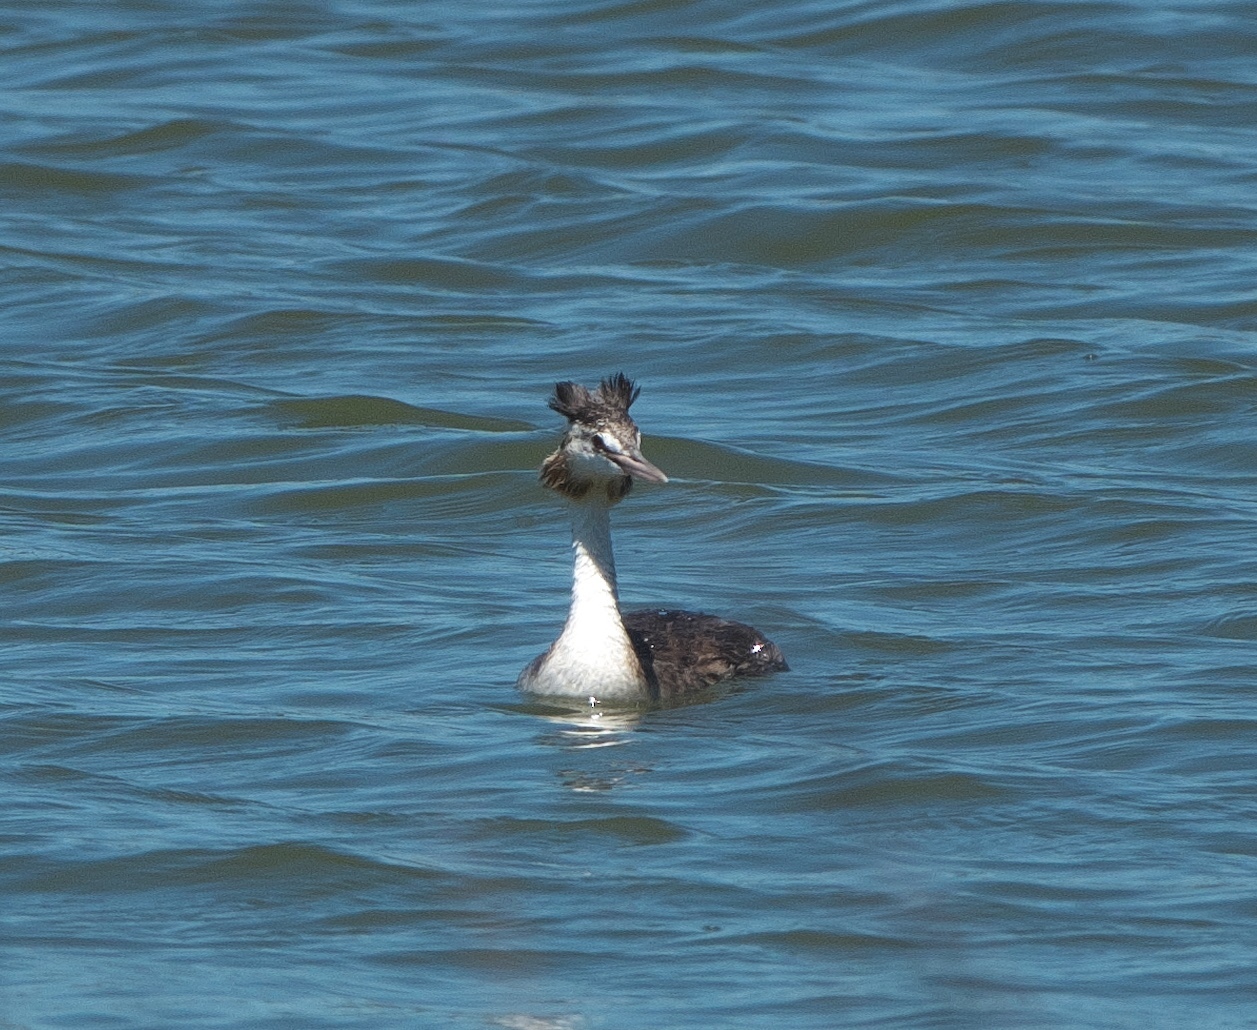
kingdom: Animalia
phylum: Chordata
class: Aves
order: Podicipediformes
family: Podicipedidae
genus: Podiceps
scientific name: Podiceps cristatus
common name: Great crested grebe
